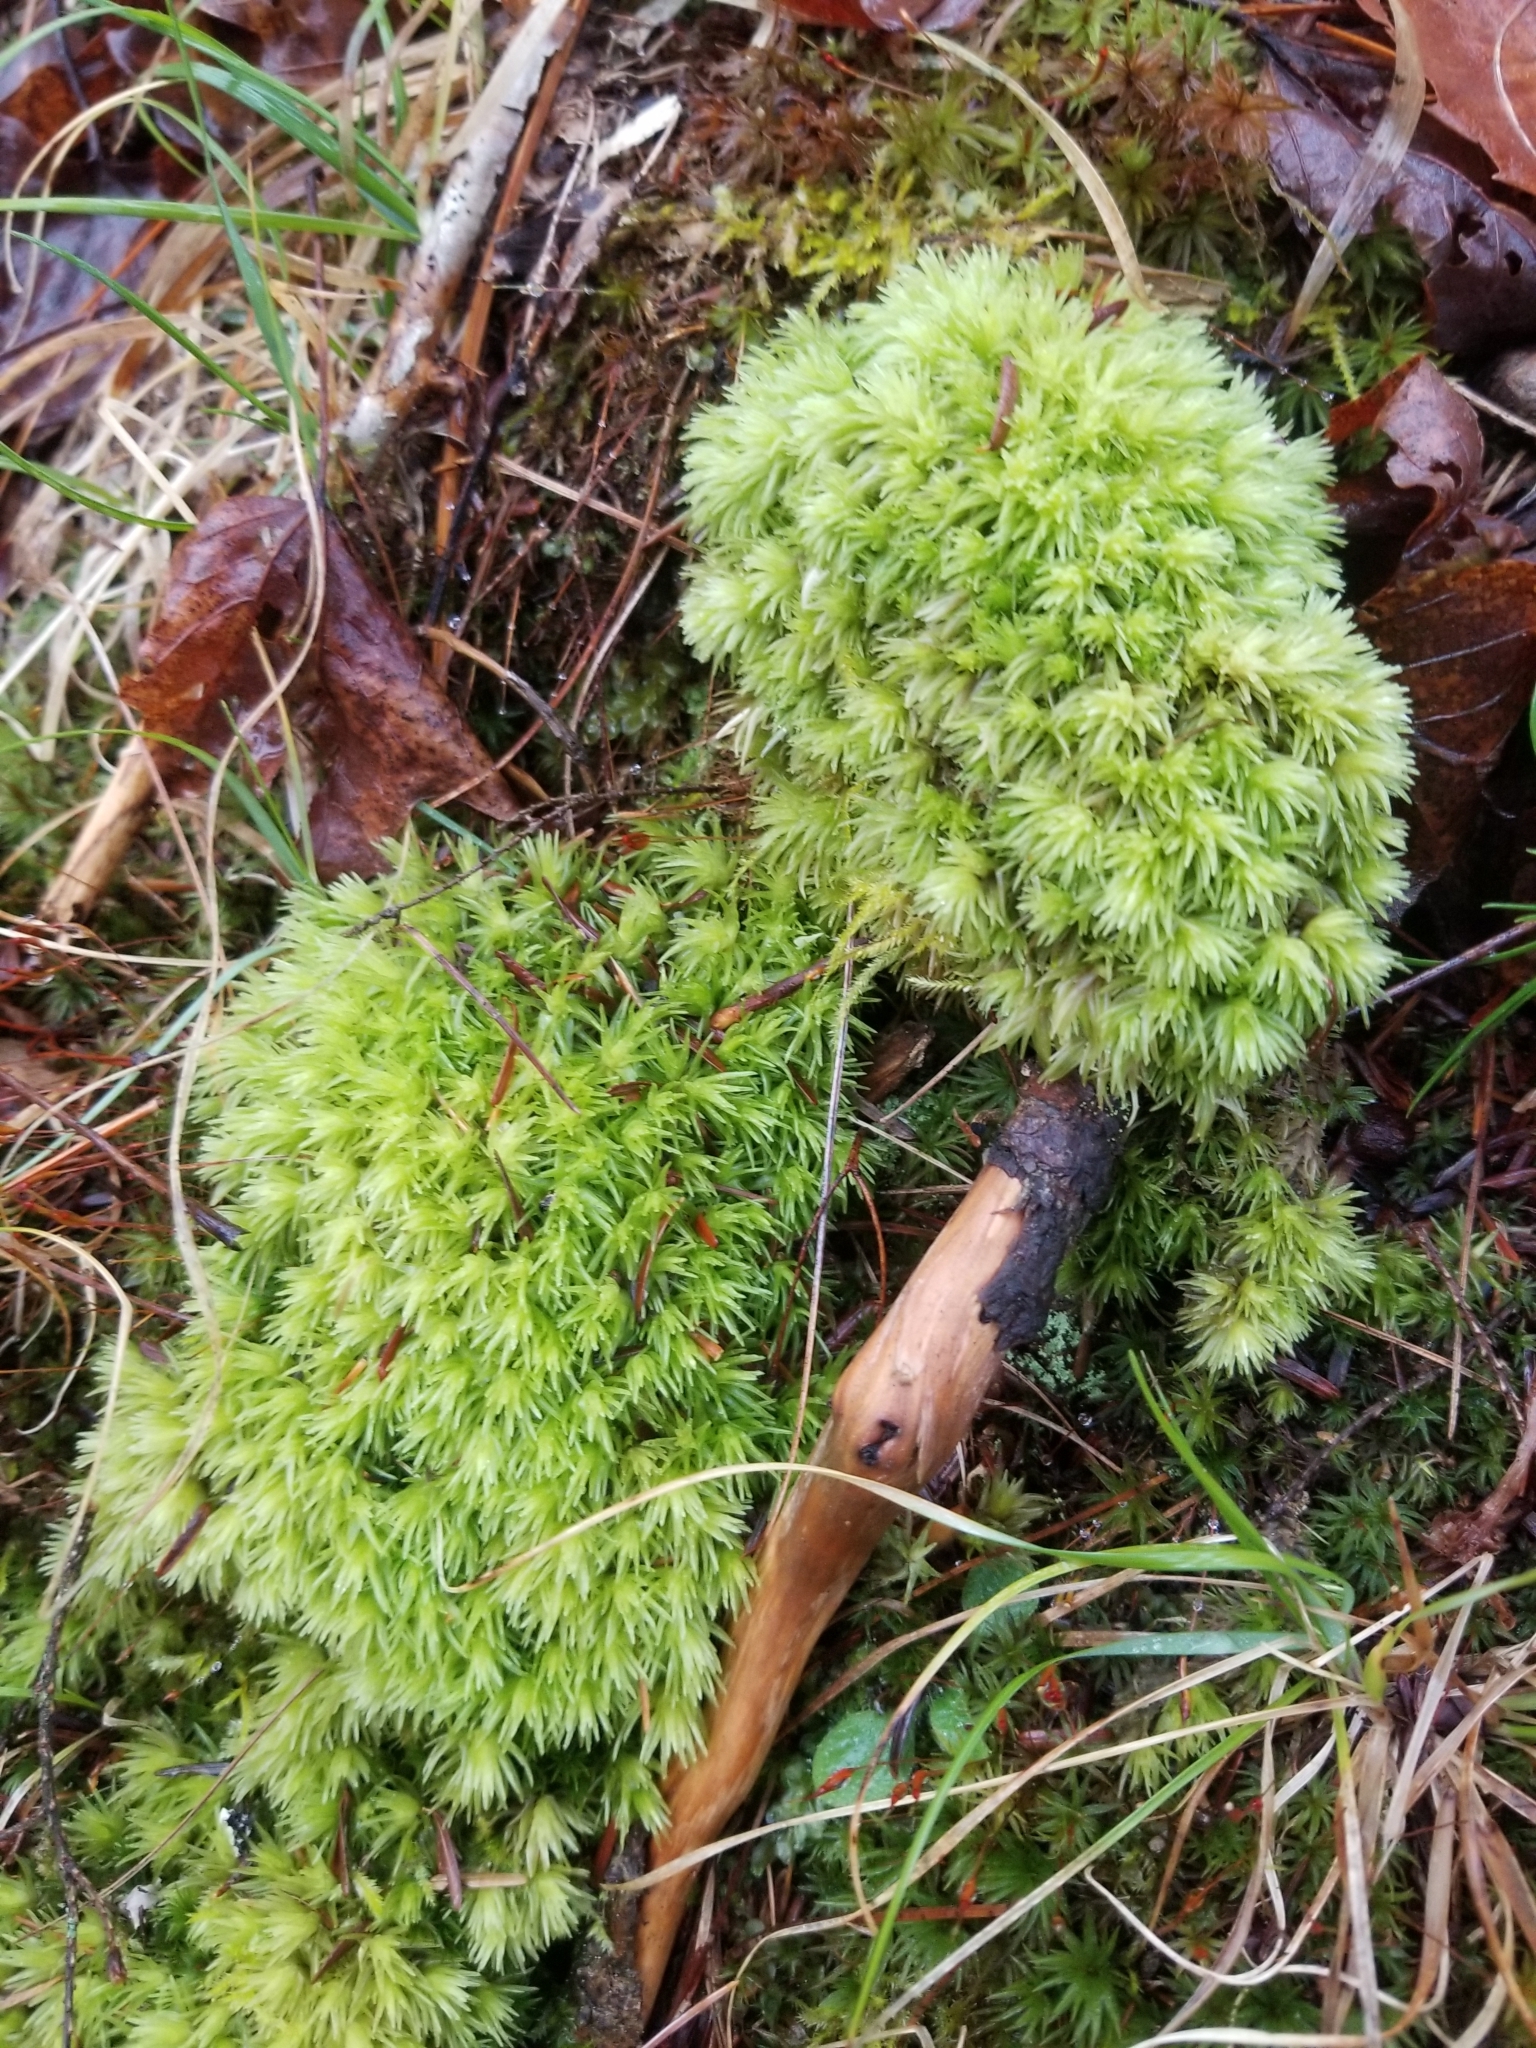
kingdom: Plantae
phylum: Bryophyta
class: Bryopsida
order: Dicranales
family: Leucobryaceae
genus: Leucobryum
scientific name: Leucobryum glaucum
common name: Large white-moss
